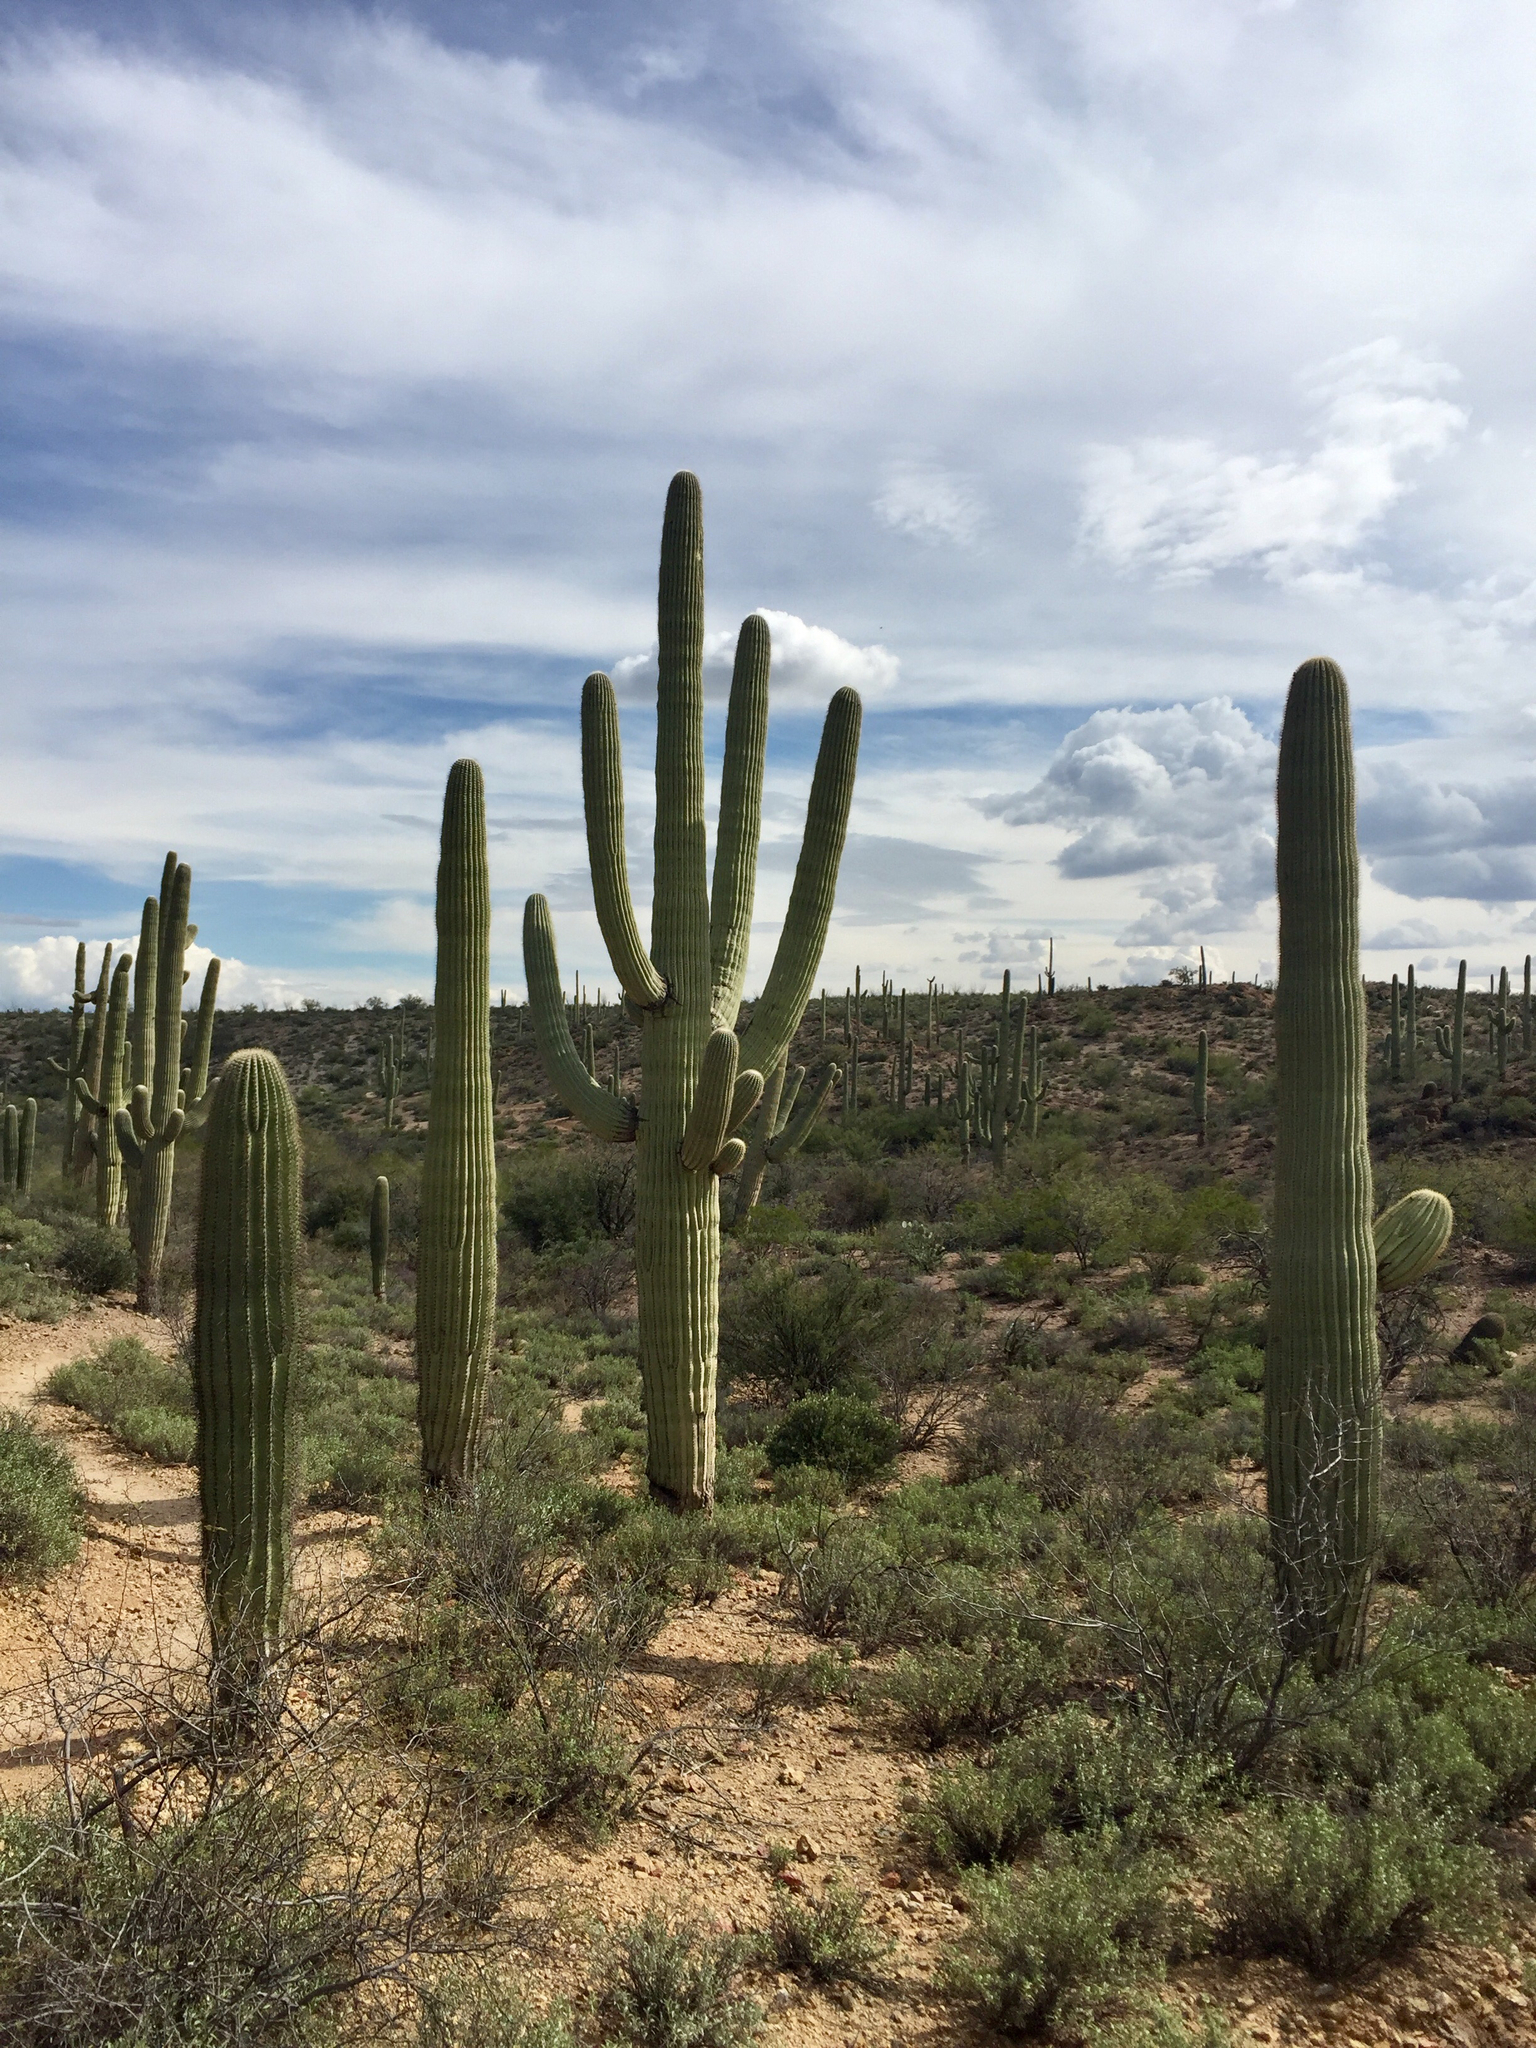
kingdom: Plantae
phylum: Tracheophyta
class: Magnoliopsida
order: Caryophyllales
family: Cactaceae
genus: Carnegiea
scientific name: Carnegiea gigantea
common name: Saguaro
